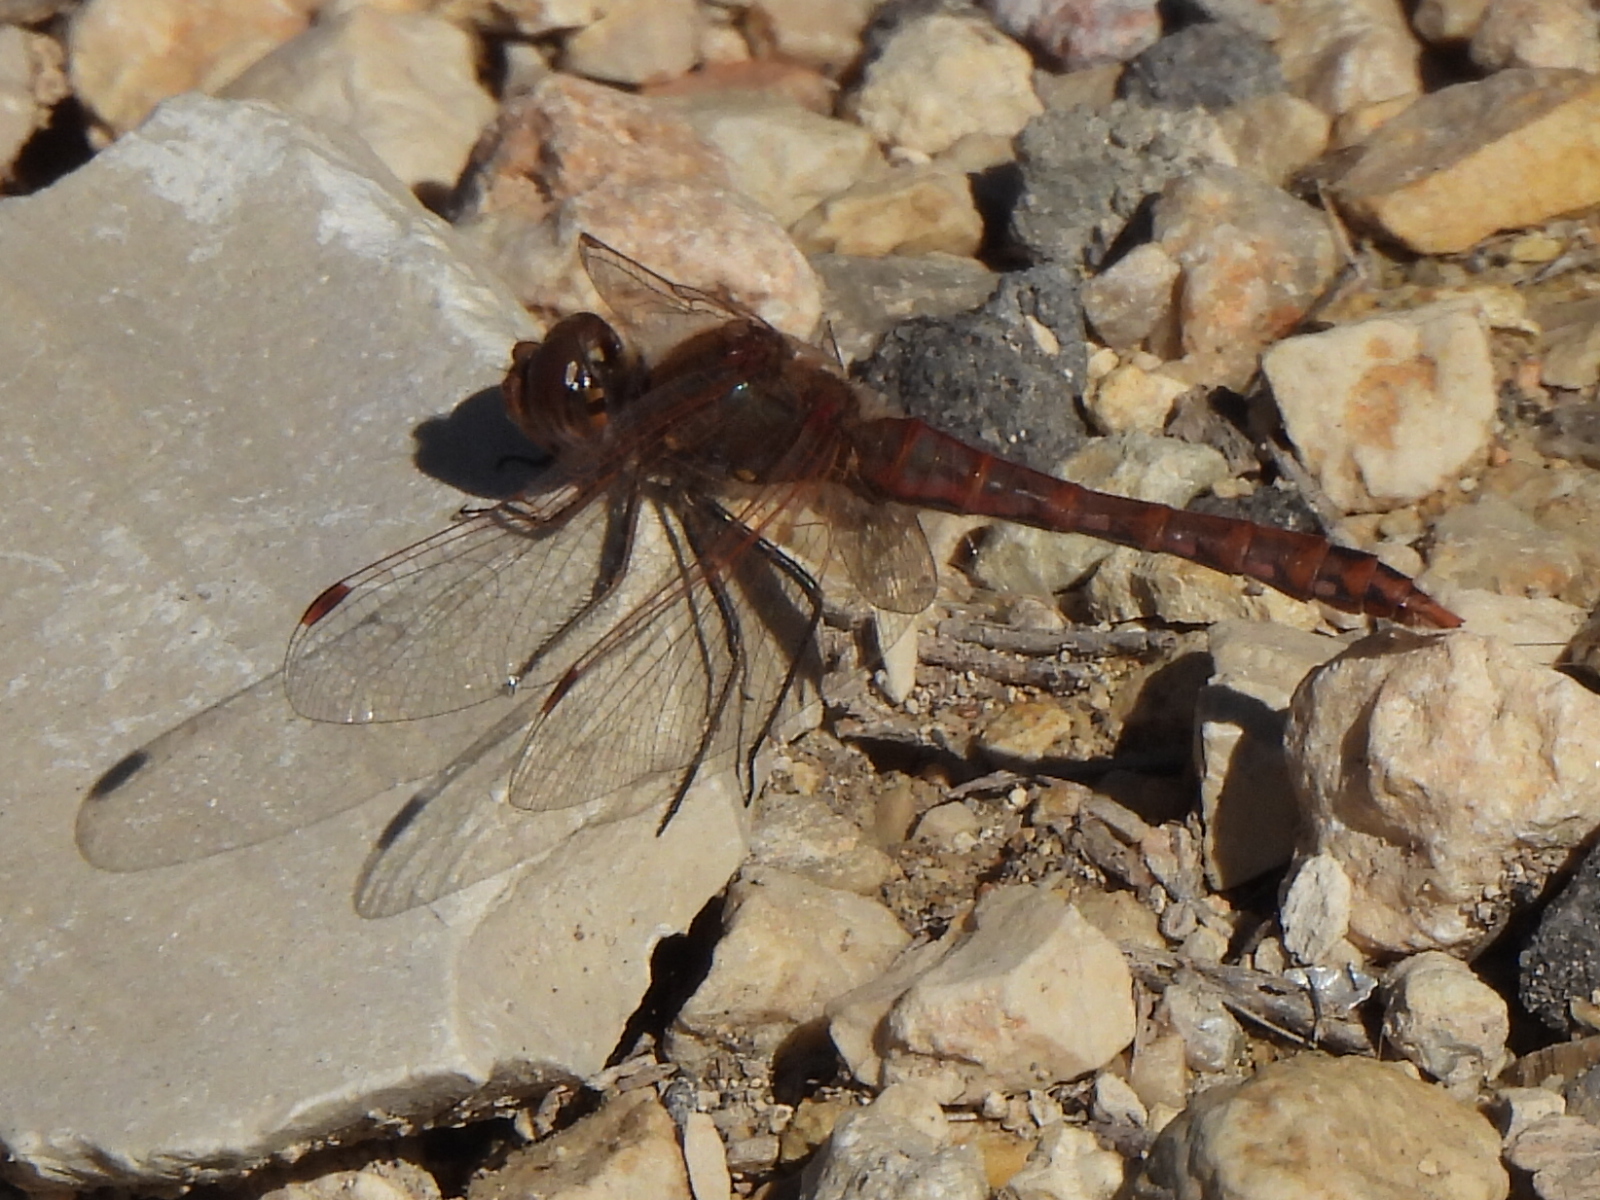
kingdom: Animalia
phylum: Arthropoda
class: Insecta
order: Odonata
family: Libellulidae
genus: Sympetrum
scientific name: Sympetrum corruptum
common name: Variegated meadowhawk
